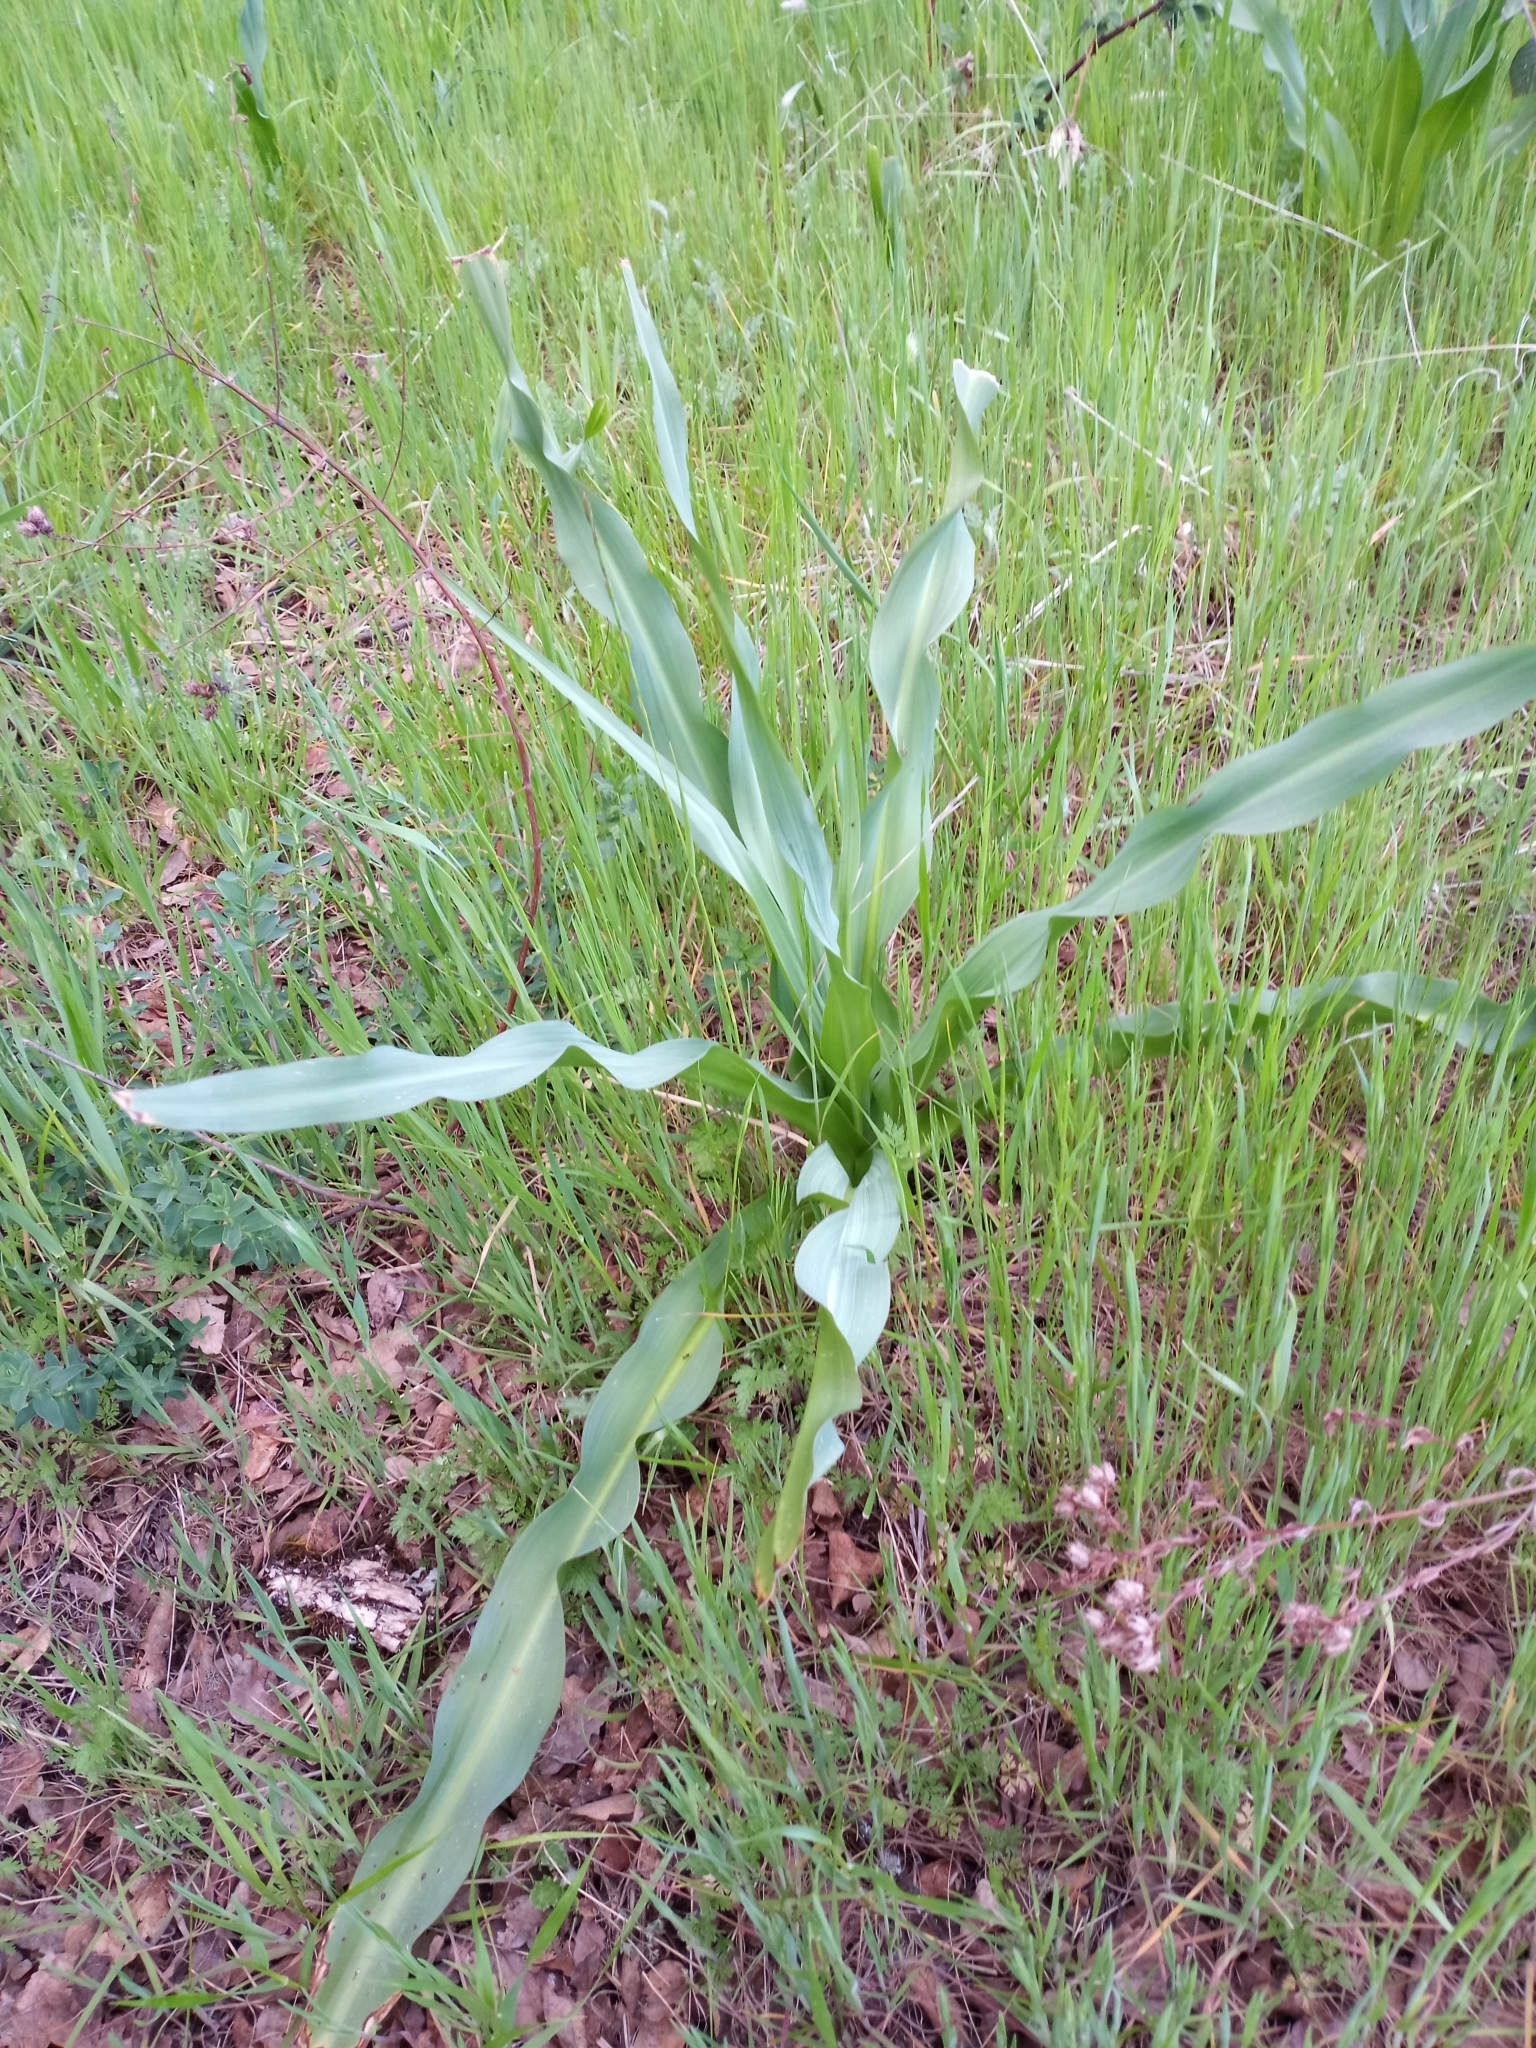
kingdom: Plantae
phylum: Tracheophyta
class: Liliopsida
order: Asparagales
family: Asparagaceae
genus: Chlorogalum
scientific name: Chlorogalum pomeridianum
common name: Amole
